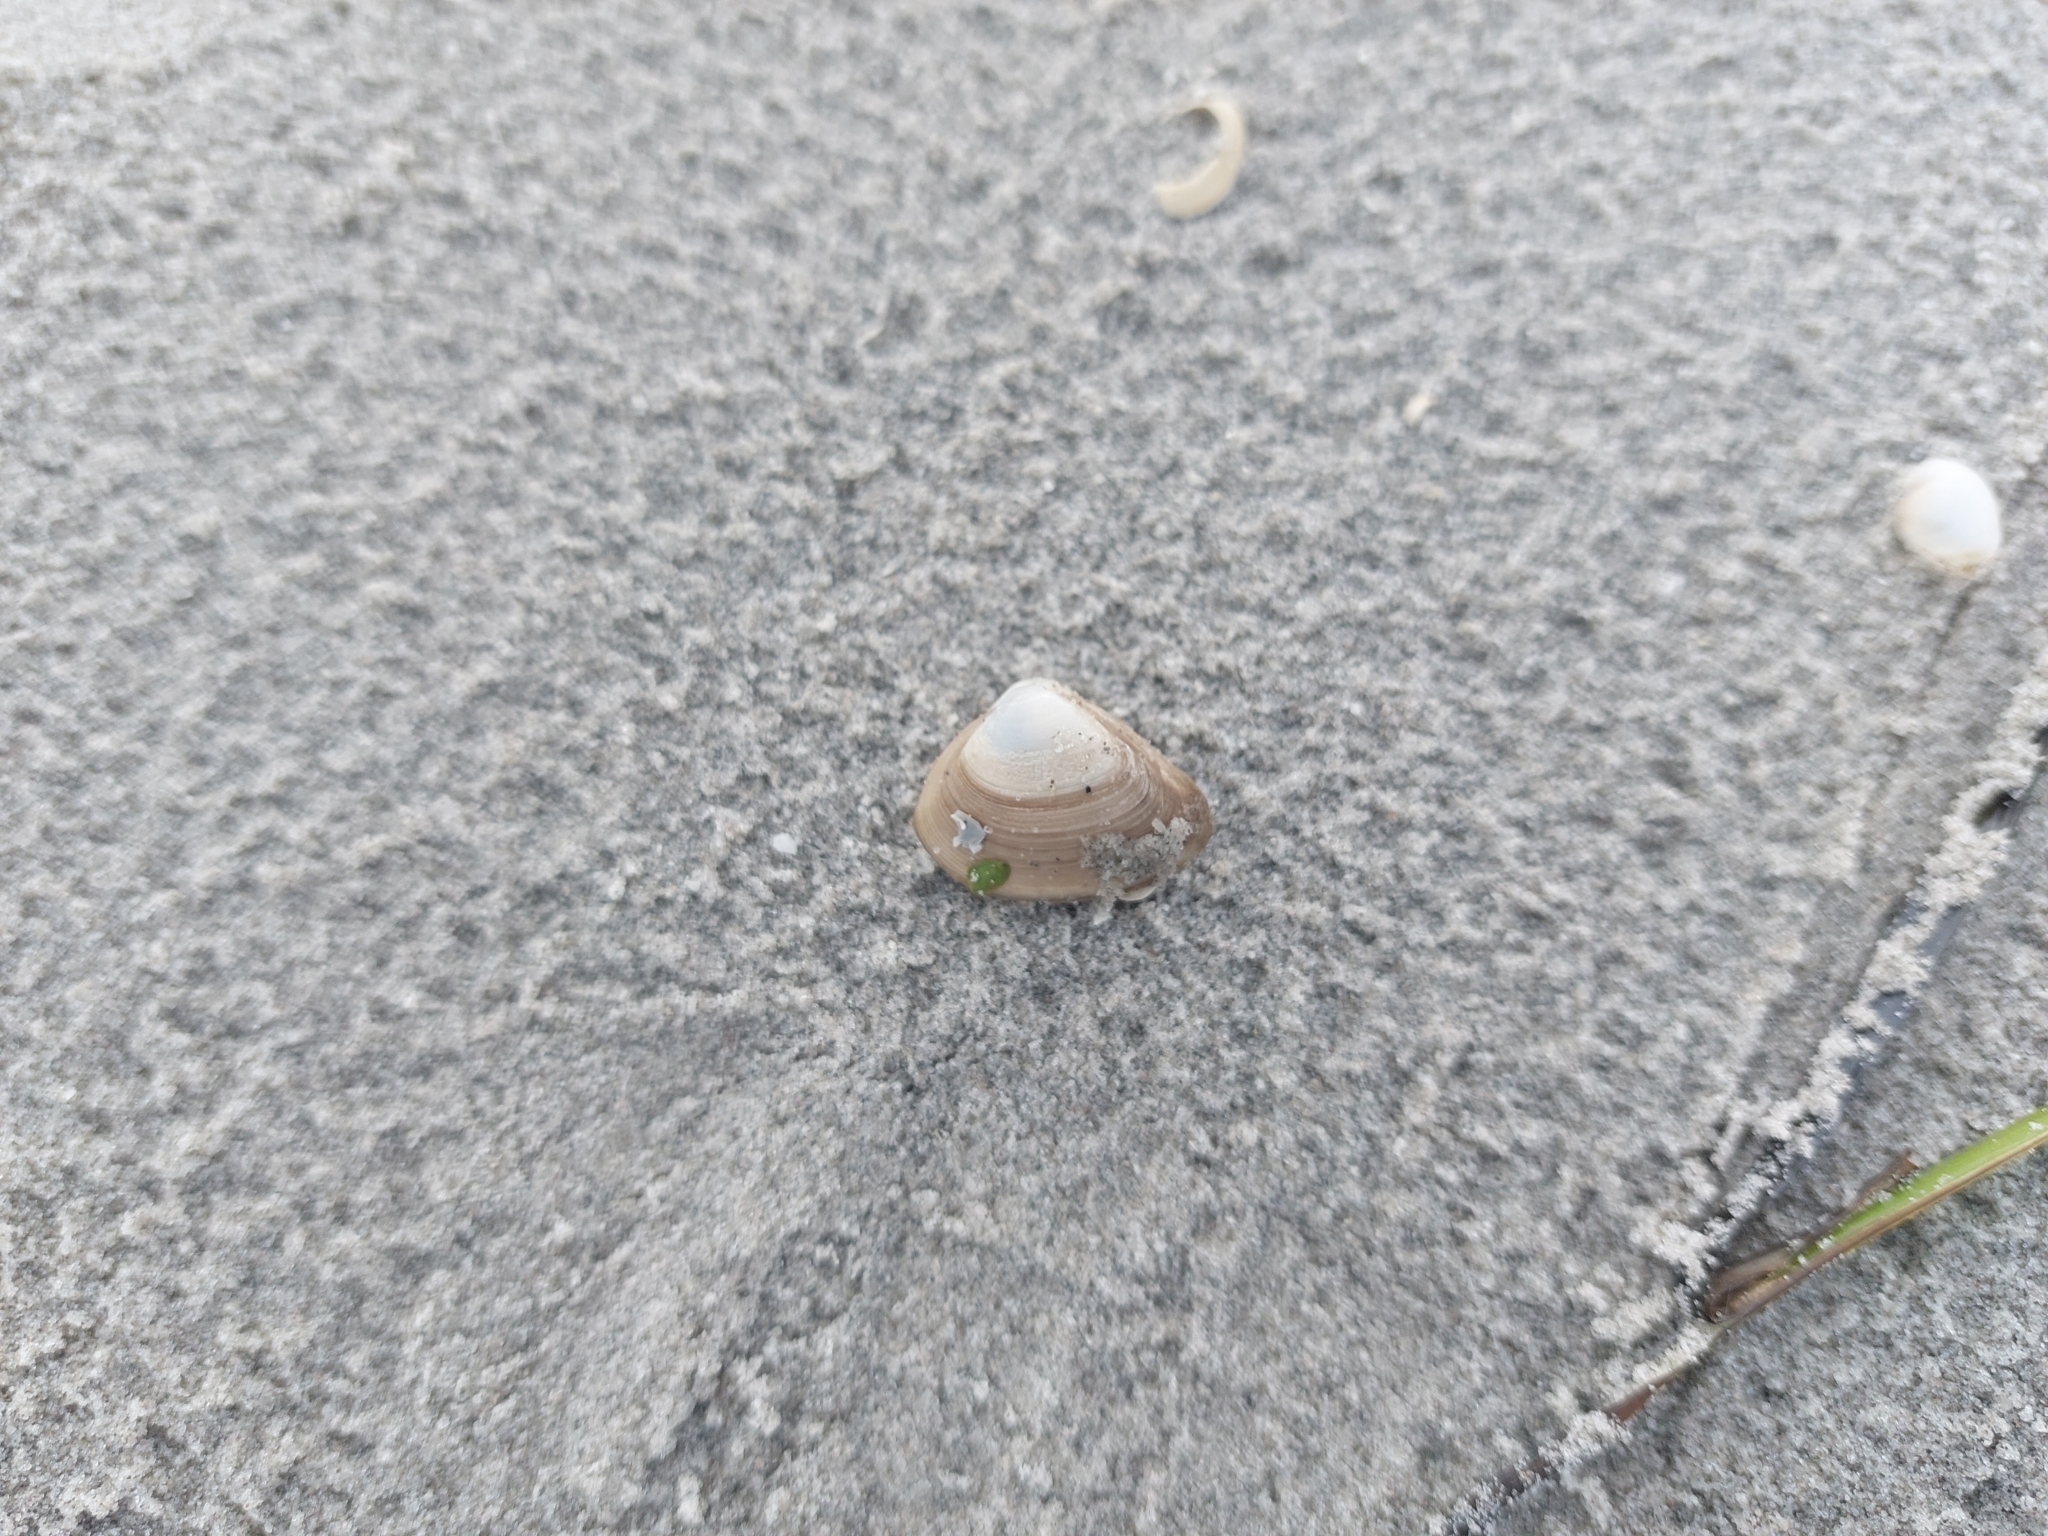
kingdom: Animalia
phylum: Mollusca
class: Bivalvia
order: Venerida
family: Mactridae
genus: Spisula
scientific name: Spisula subtruncata
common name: Cut trough shell
